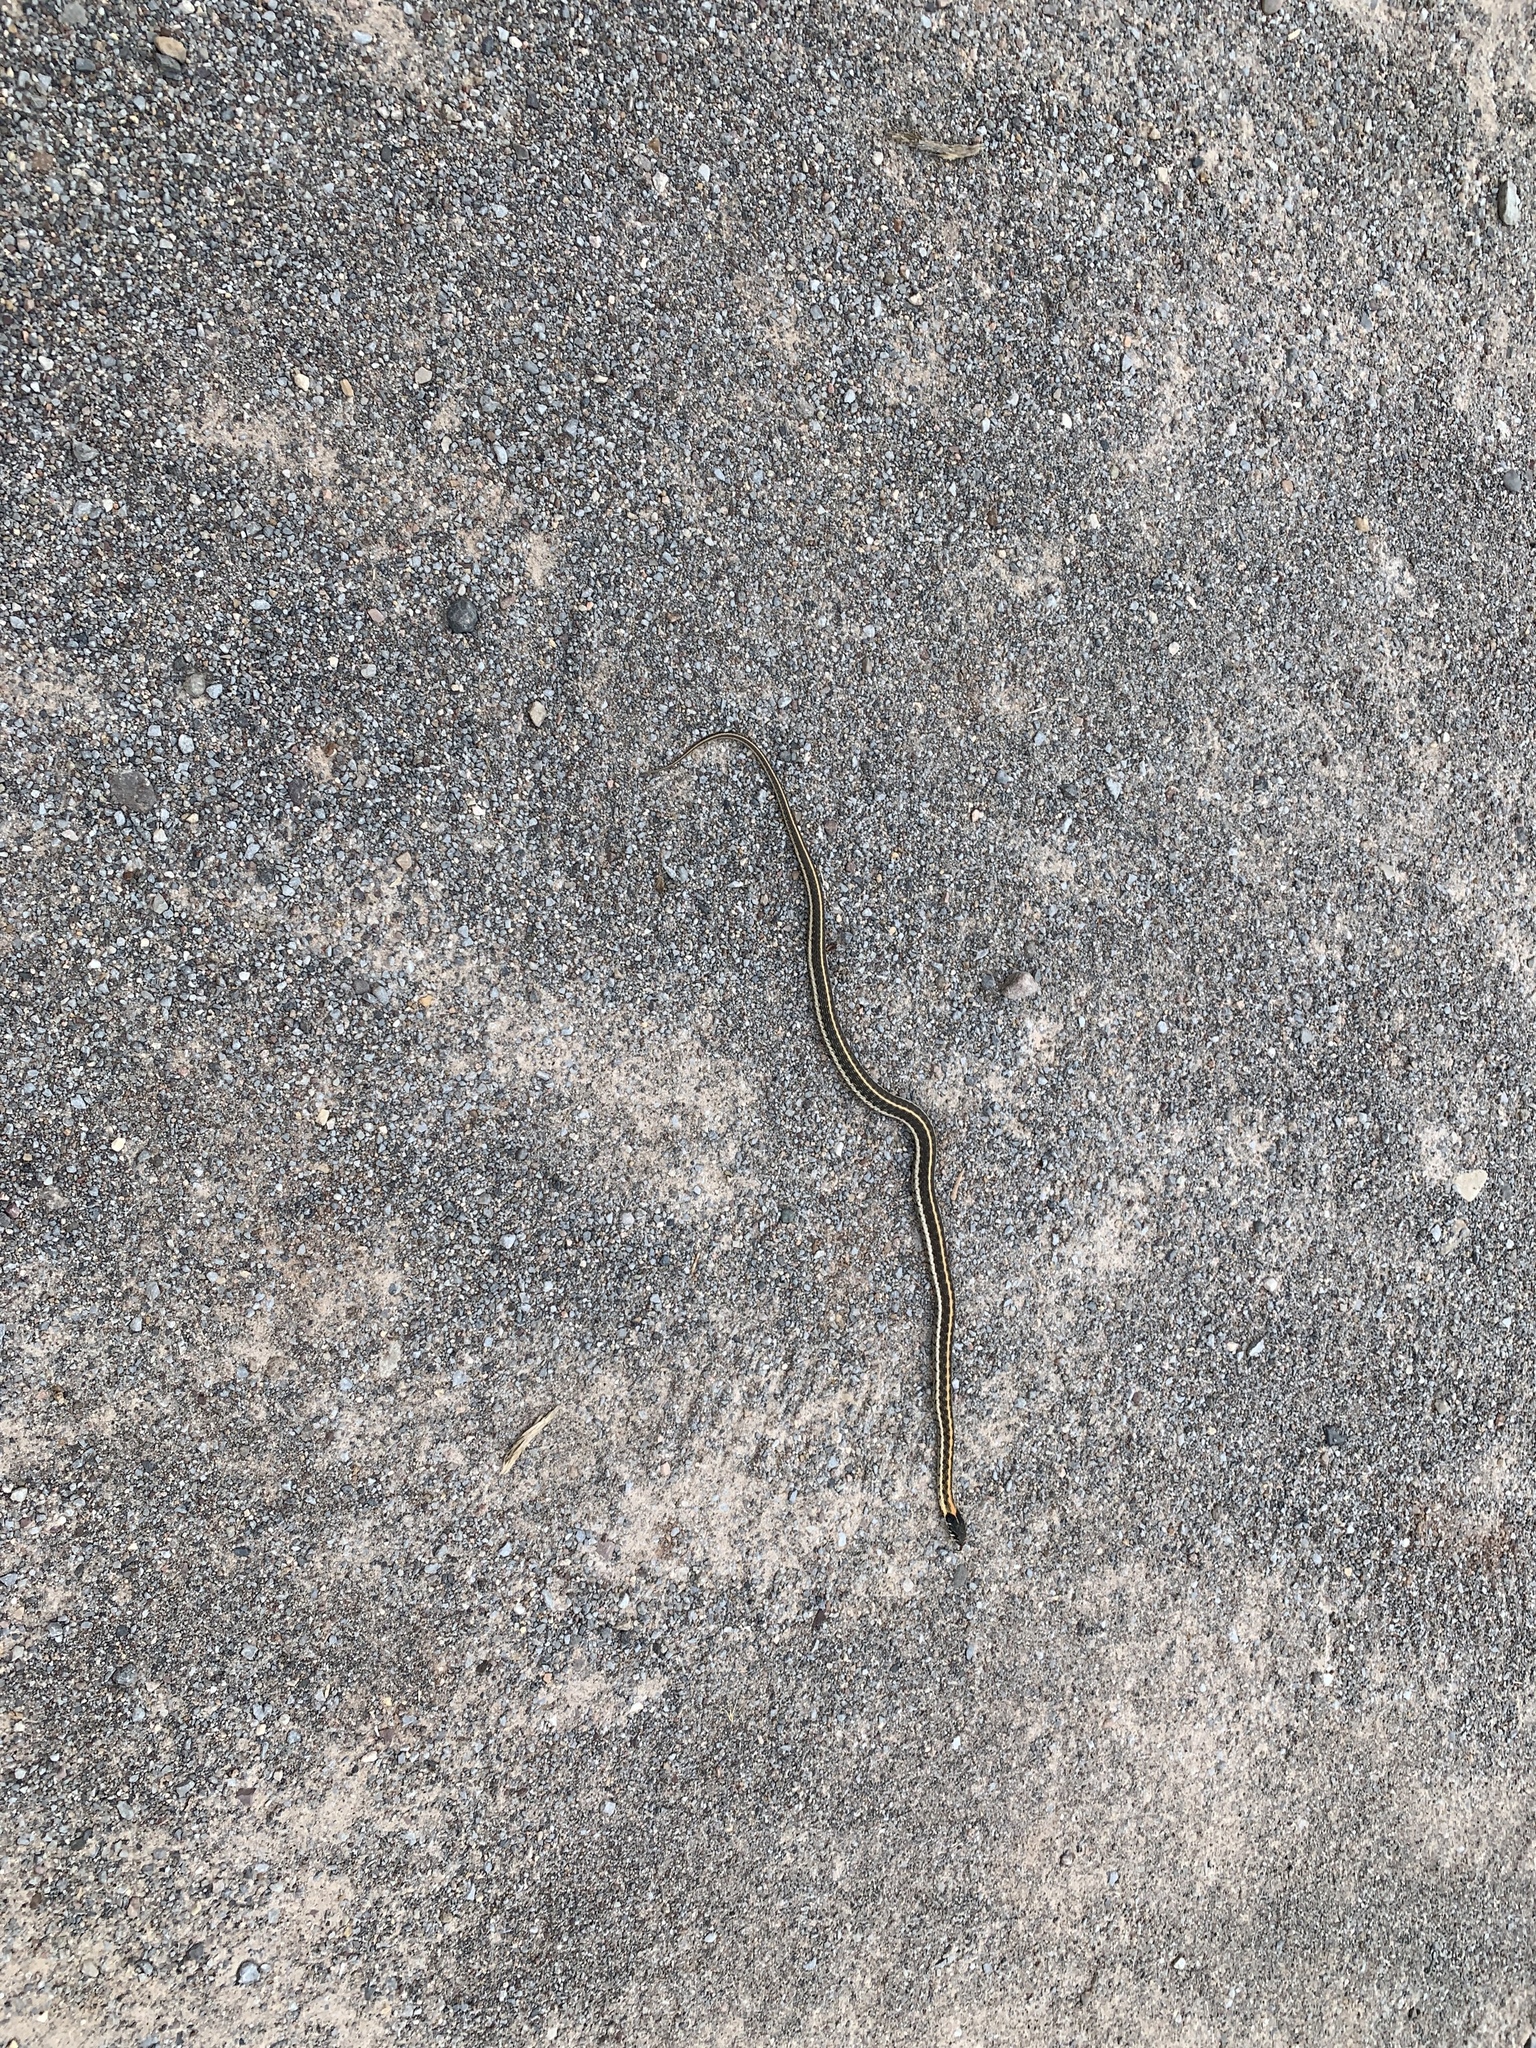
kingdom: Animalia
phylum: Chordata
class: Squamata
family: Colubridae
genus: Thamnophis
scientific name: Thamnophis cyrtopsis
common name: Black-necked gartersnake
